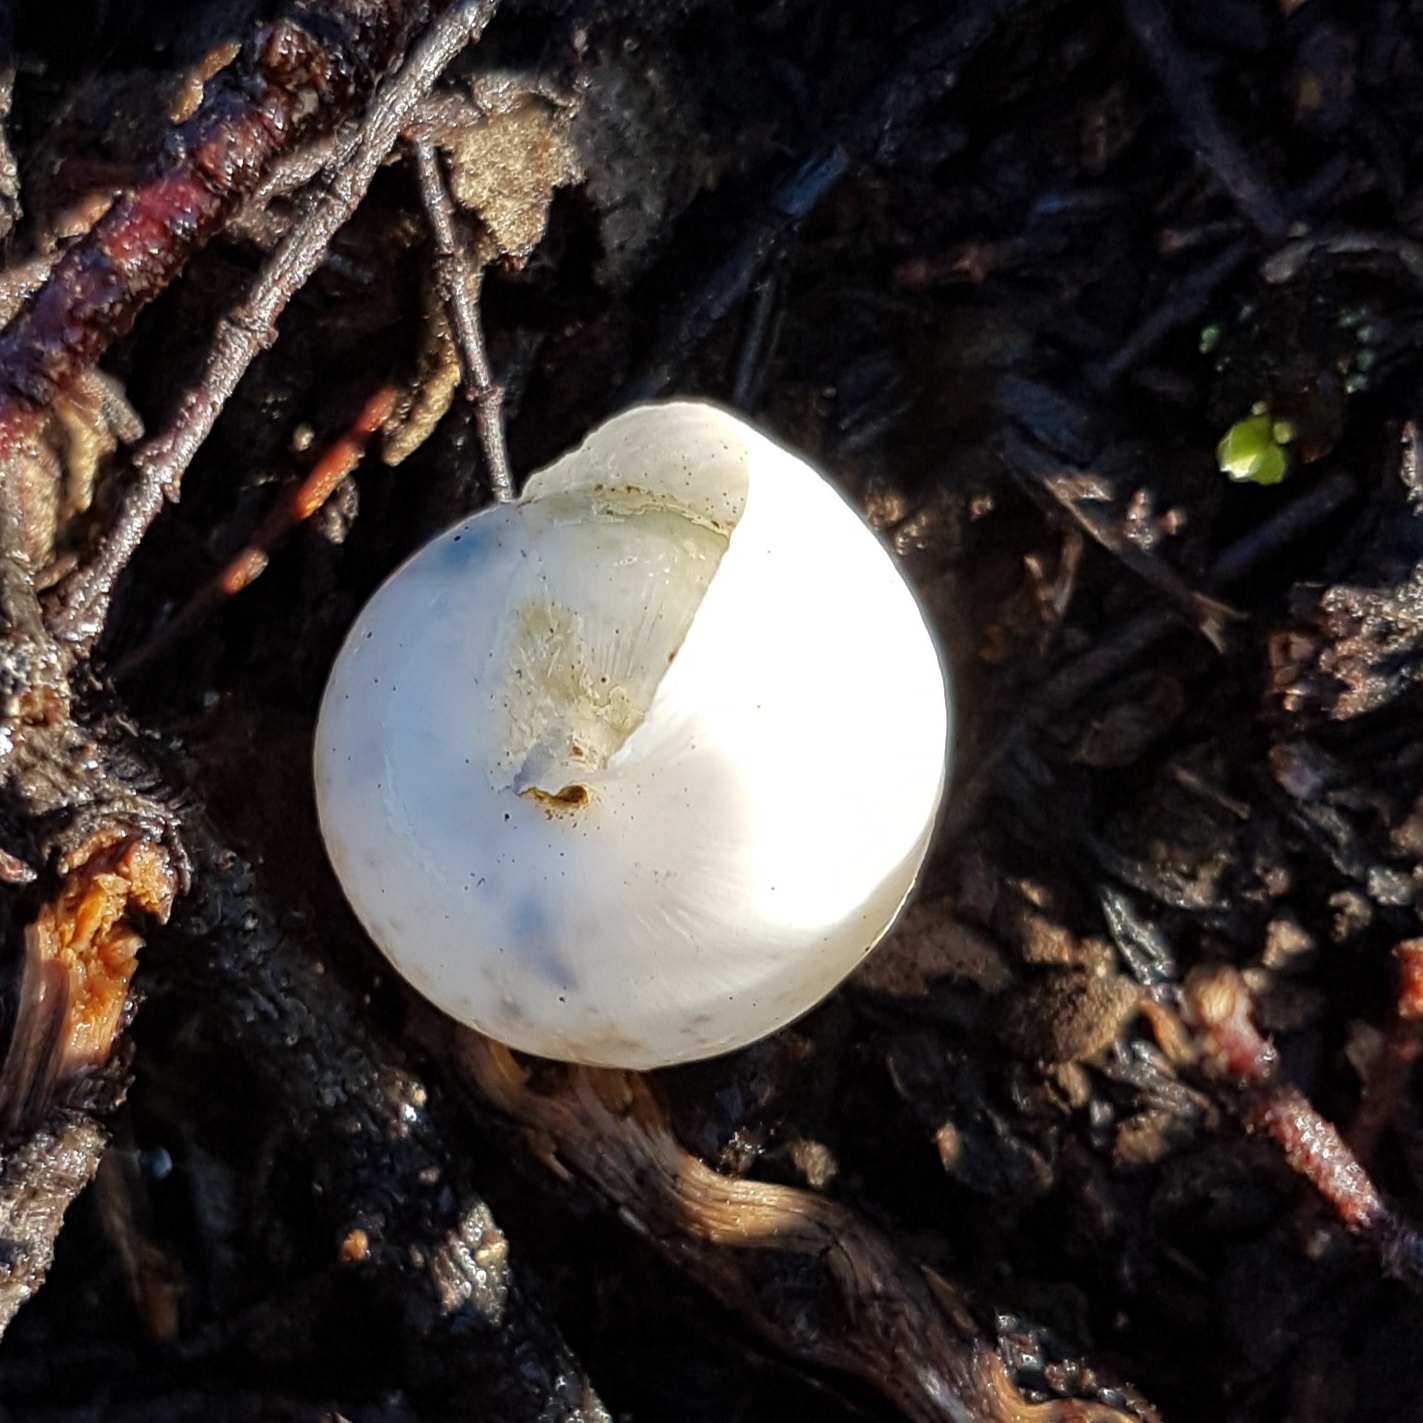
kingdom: Animalia
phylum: Mollusca
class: Gastropoda
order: Stylommatophora
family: Hygromiidae
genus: Portugala
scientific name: Portugala inchoata
